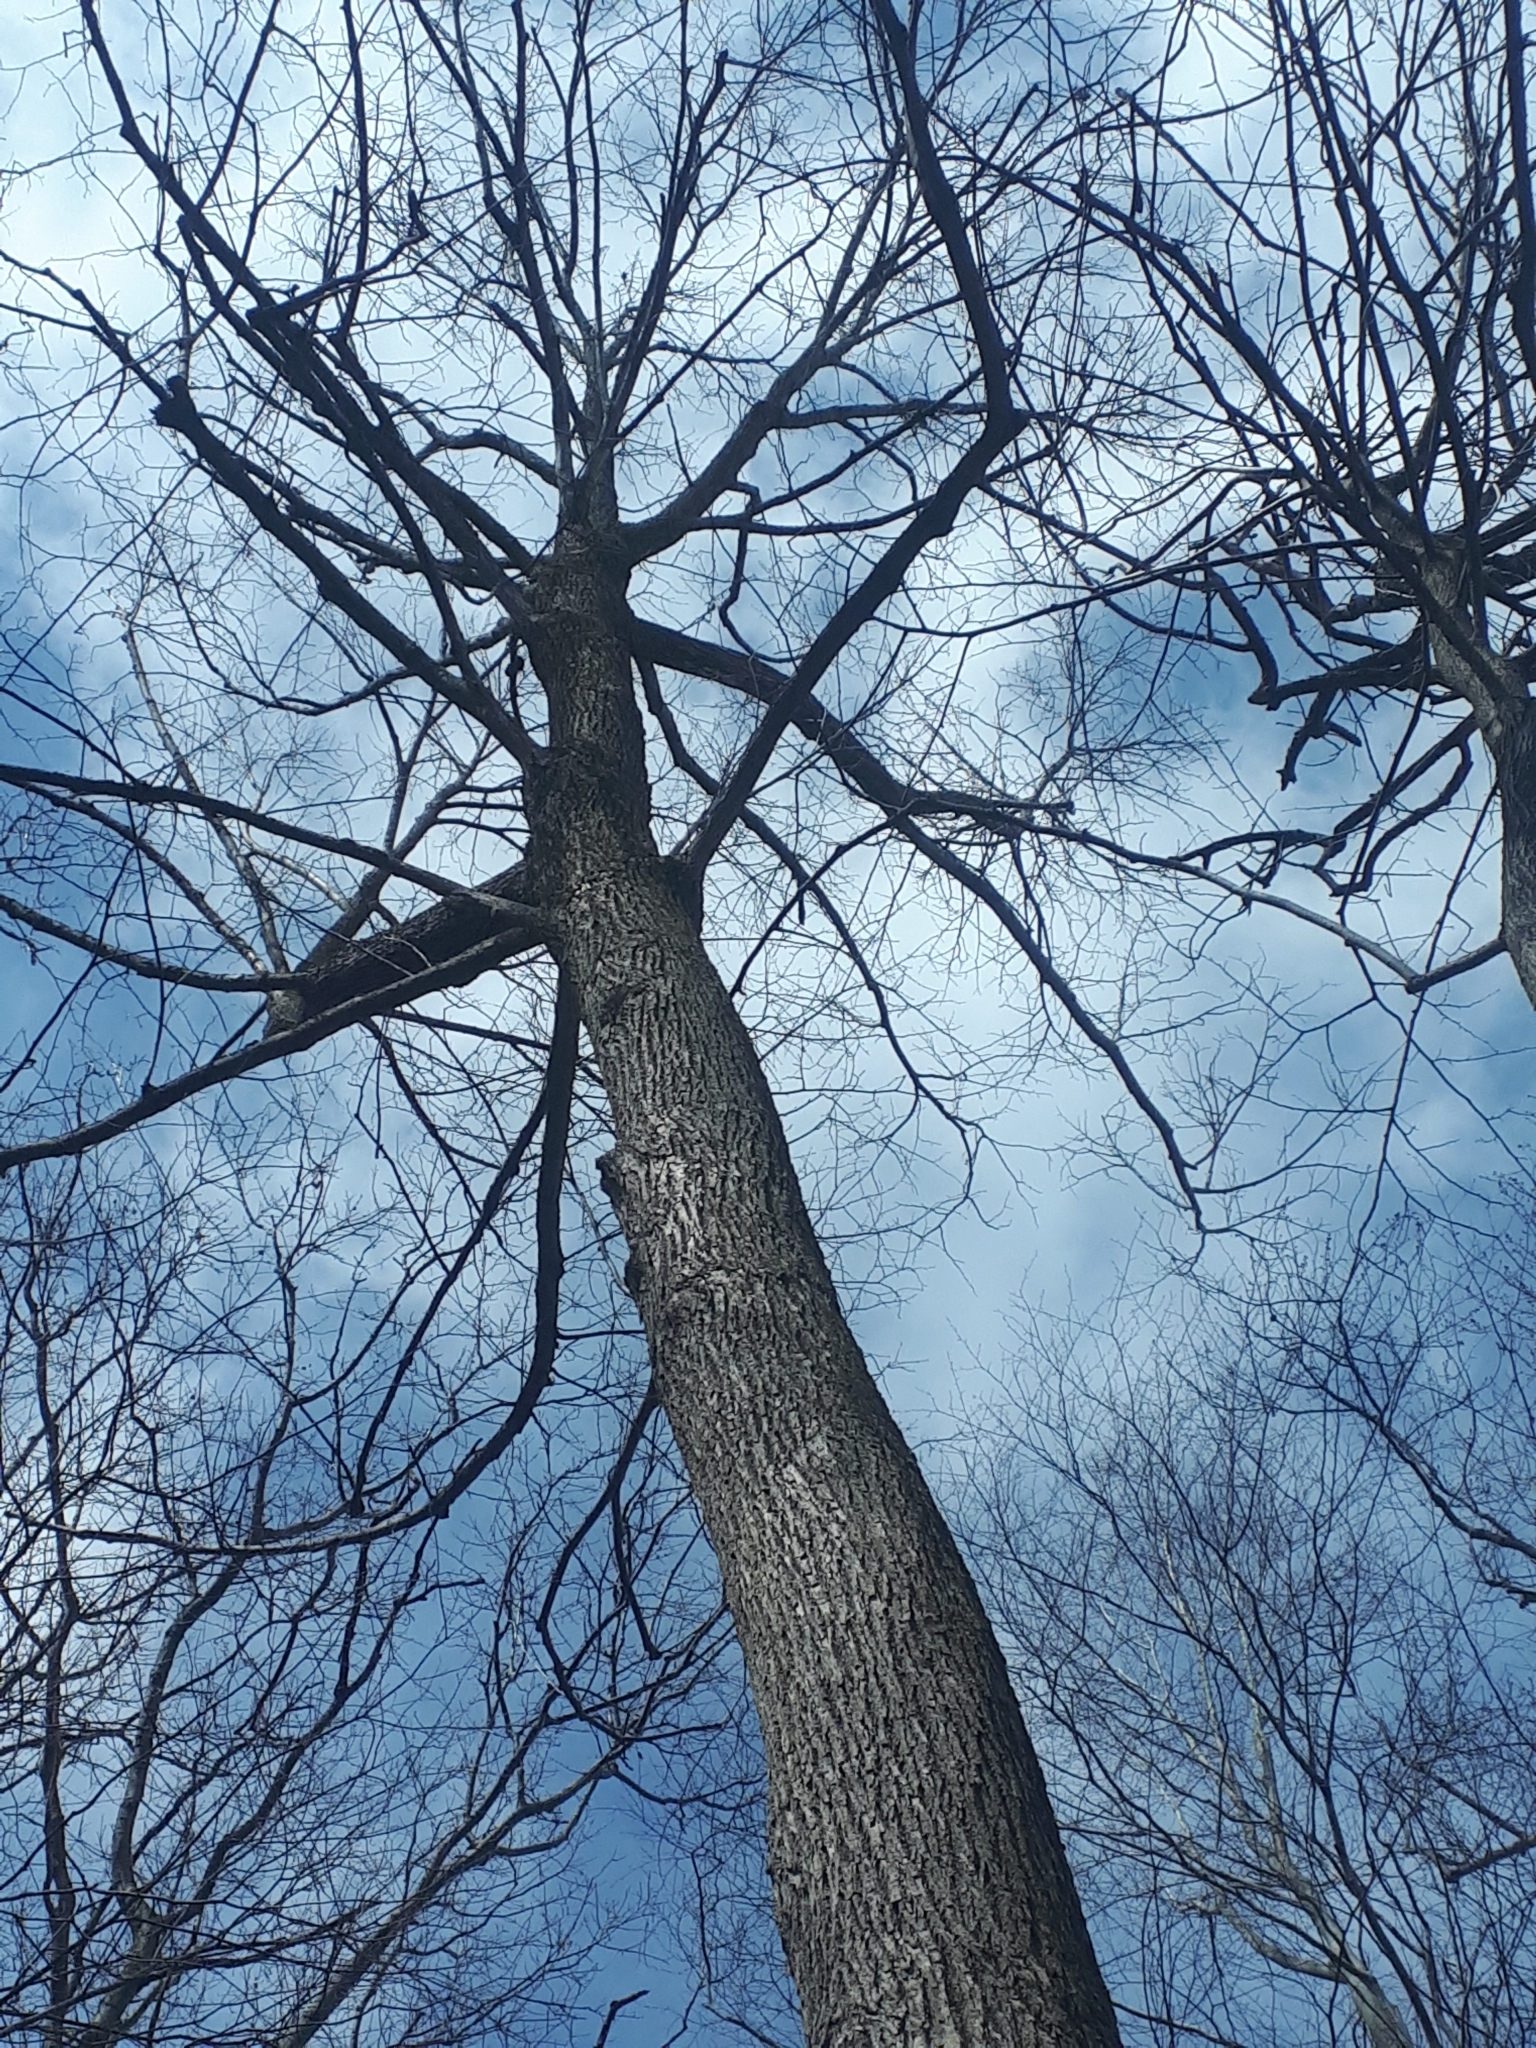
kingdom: Plantae
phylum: Tracheophyta
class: Magnoliopsida
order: Malvales
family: Malvaceae
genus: Tilia
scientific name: Tilia americana
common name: Basswood
